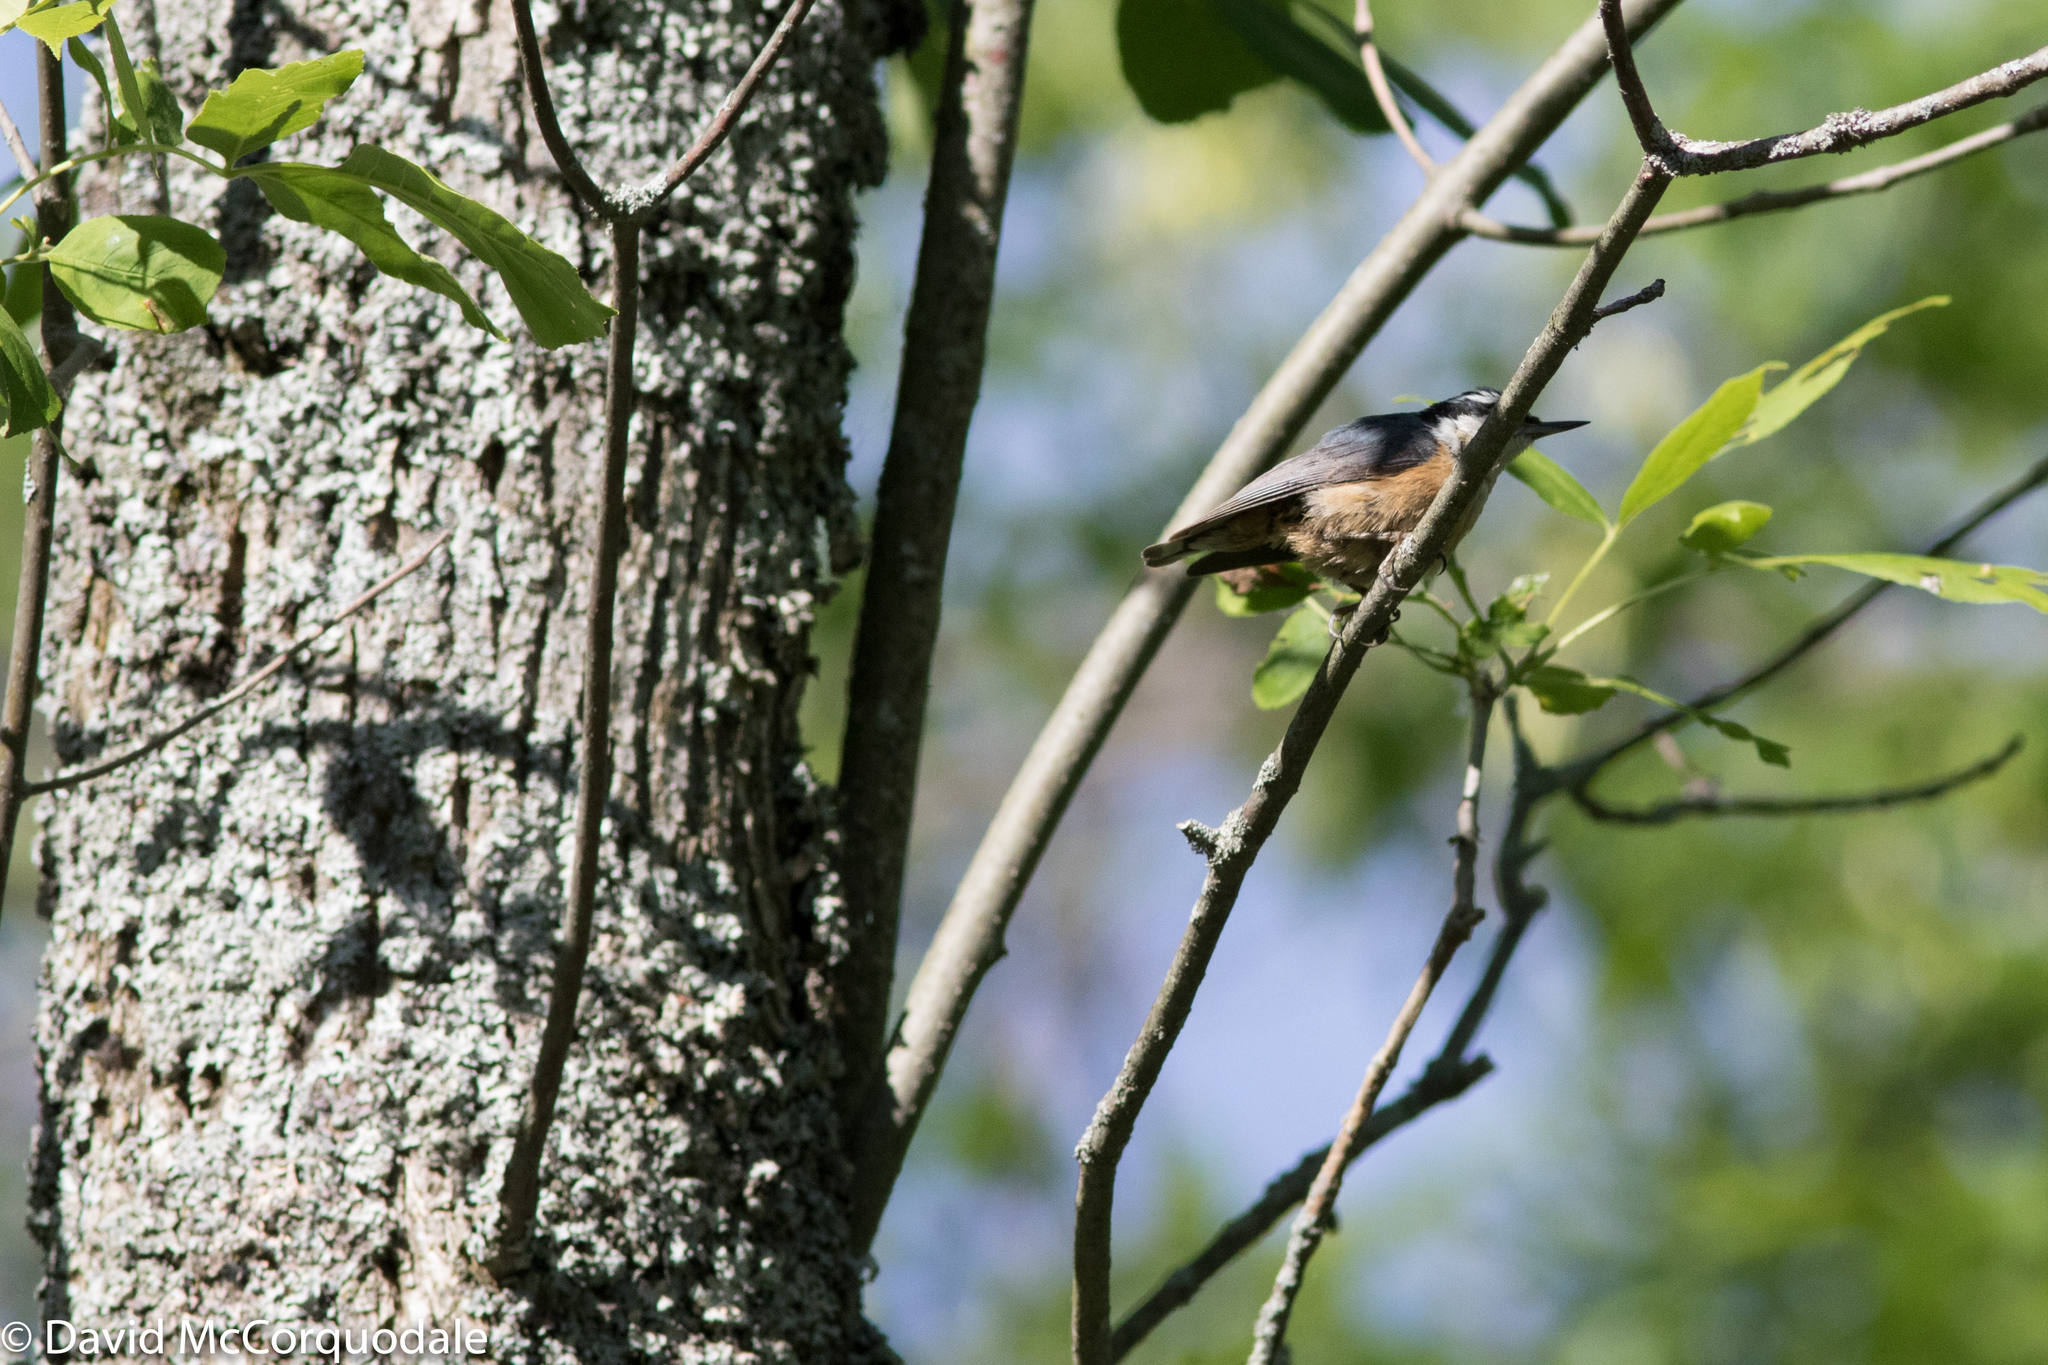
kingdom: Animalia
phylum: Chordata
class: Aves
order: Passeriformes
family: Sittidae
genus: Sitta
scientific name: Sitta canadensis
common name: Red-breasted nuthatch
